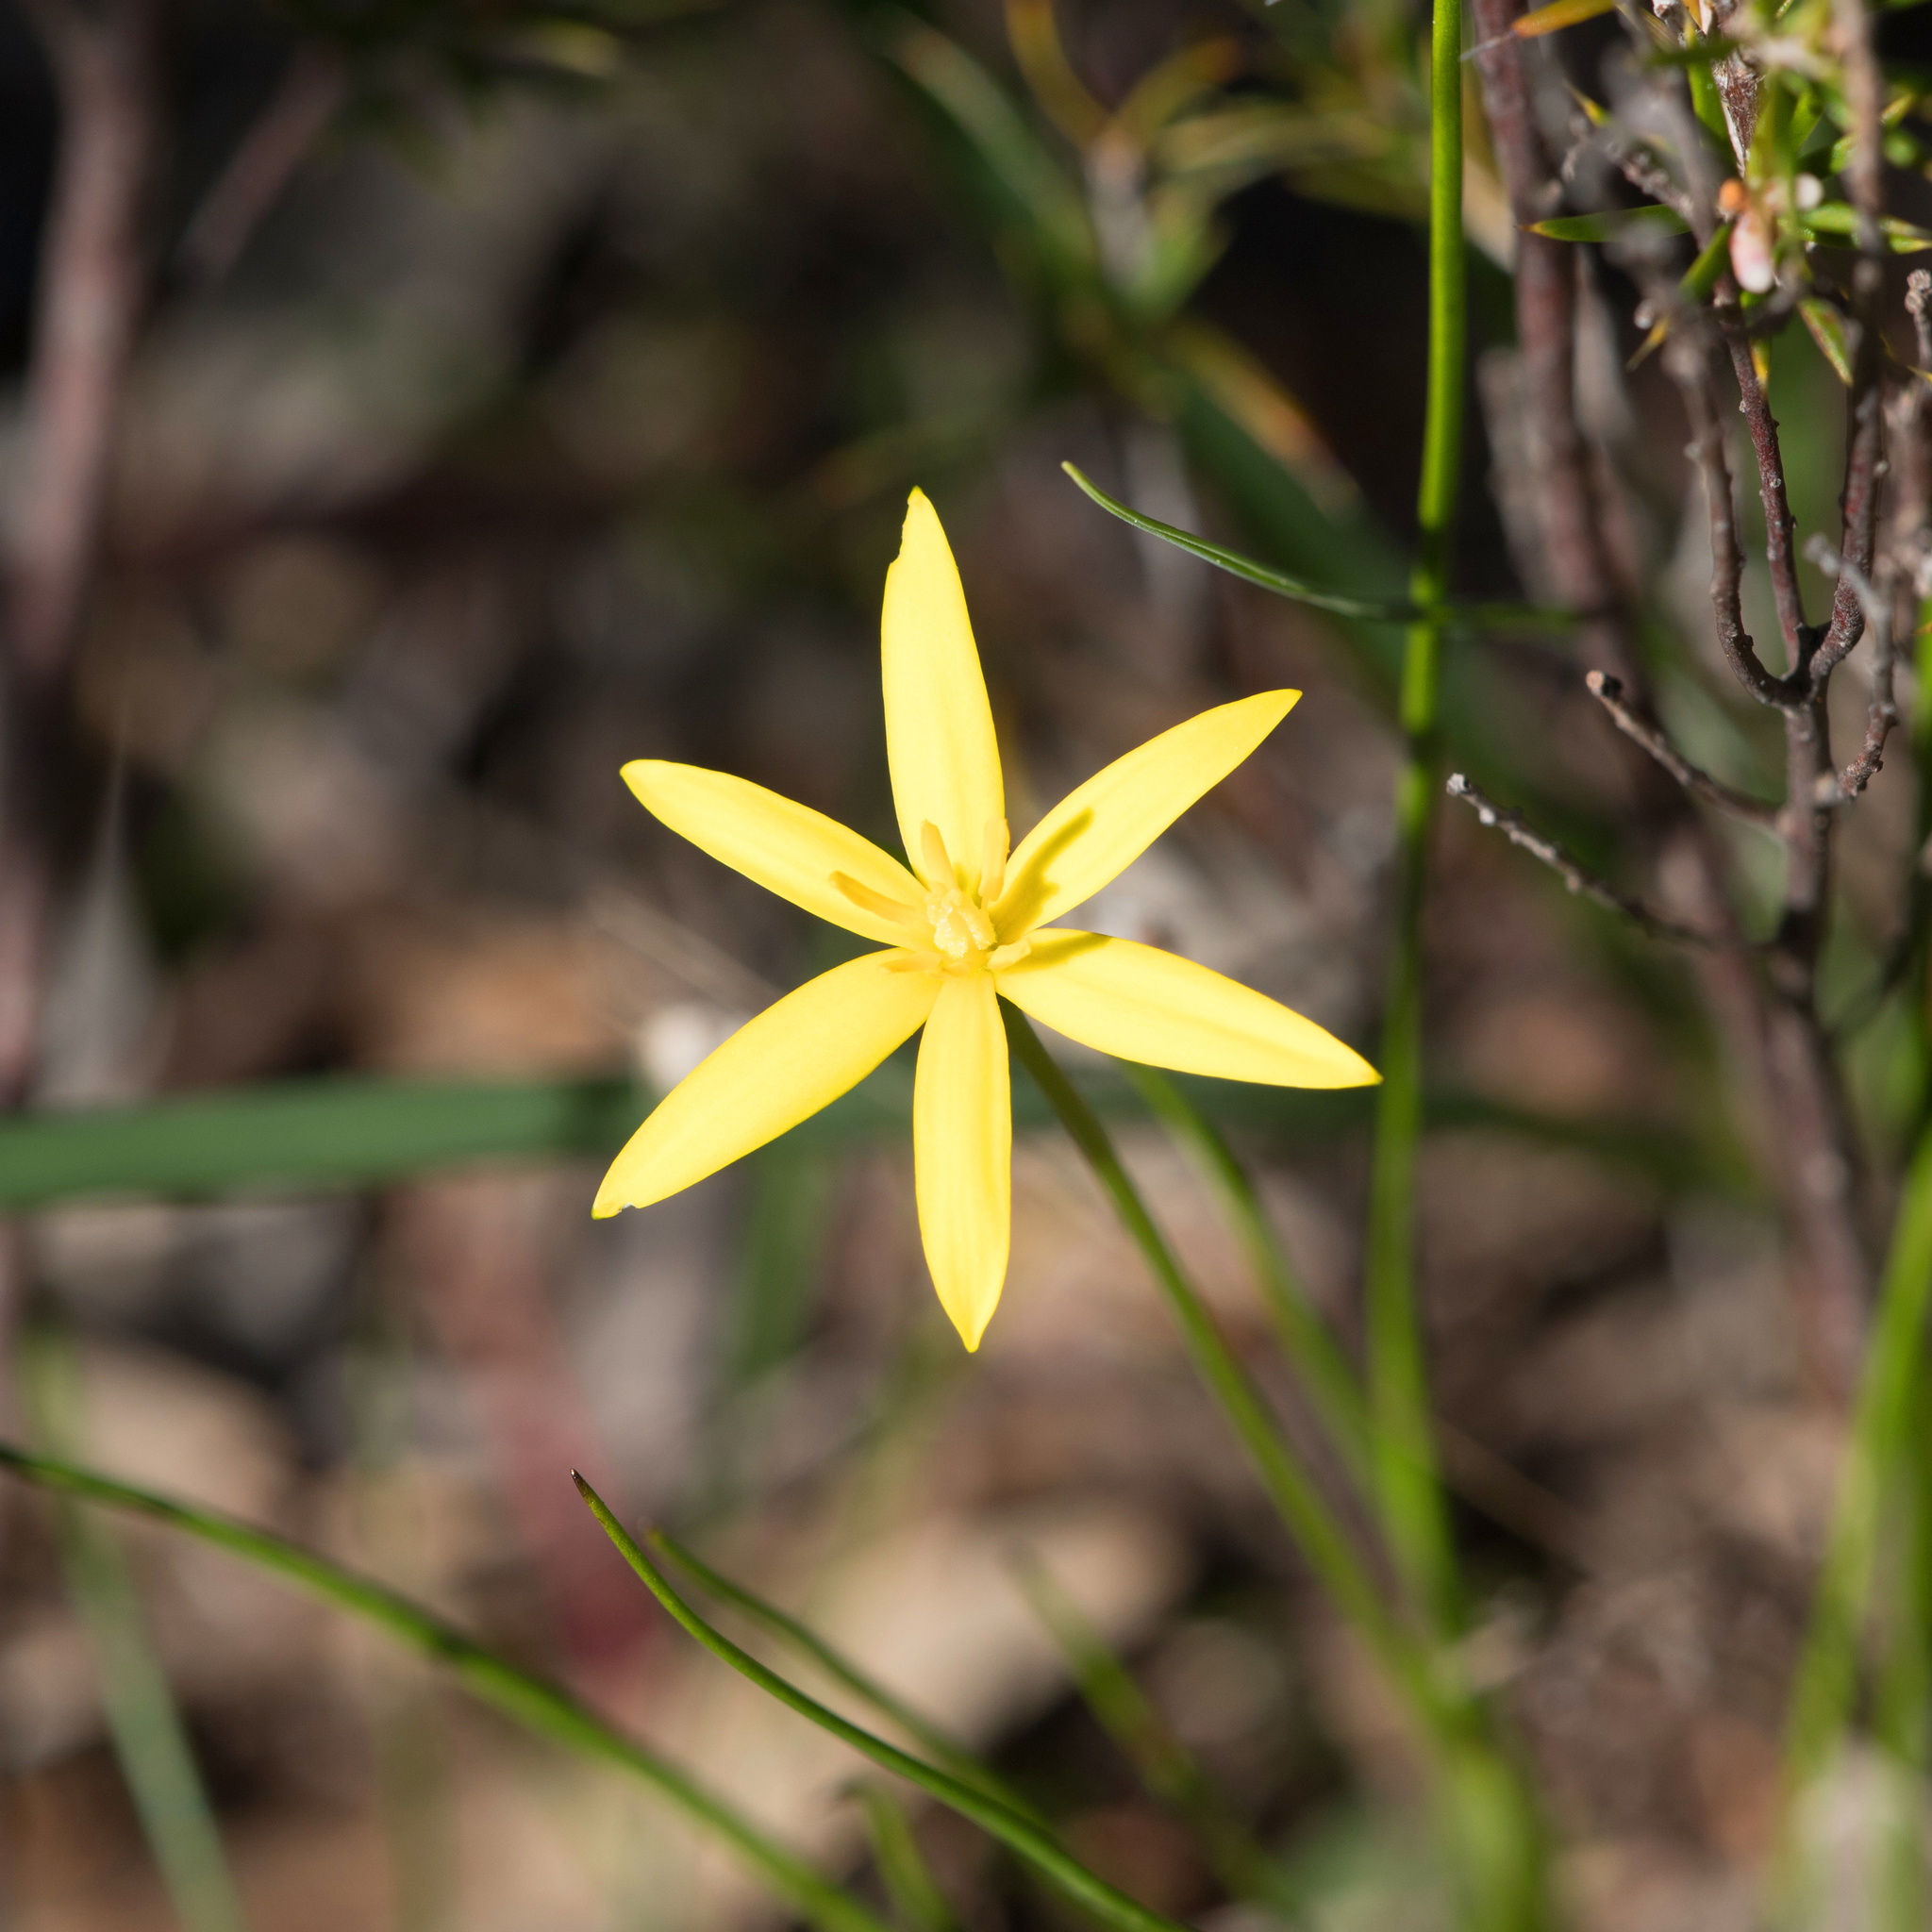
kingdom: Plantae
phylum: Tracheophyta
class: Liliopsida
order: Asparagales
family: Hypoxidaceae
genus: Pauridia
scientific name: Pauridia glabella
